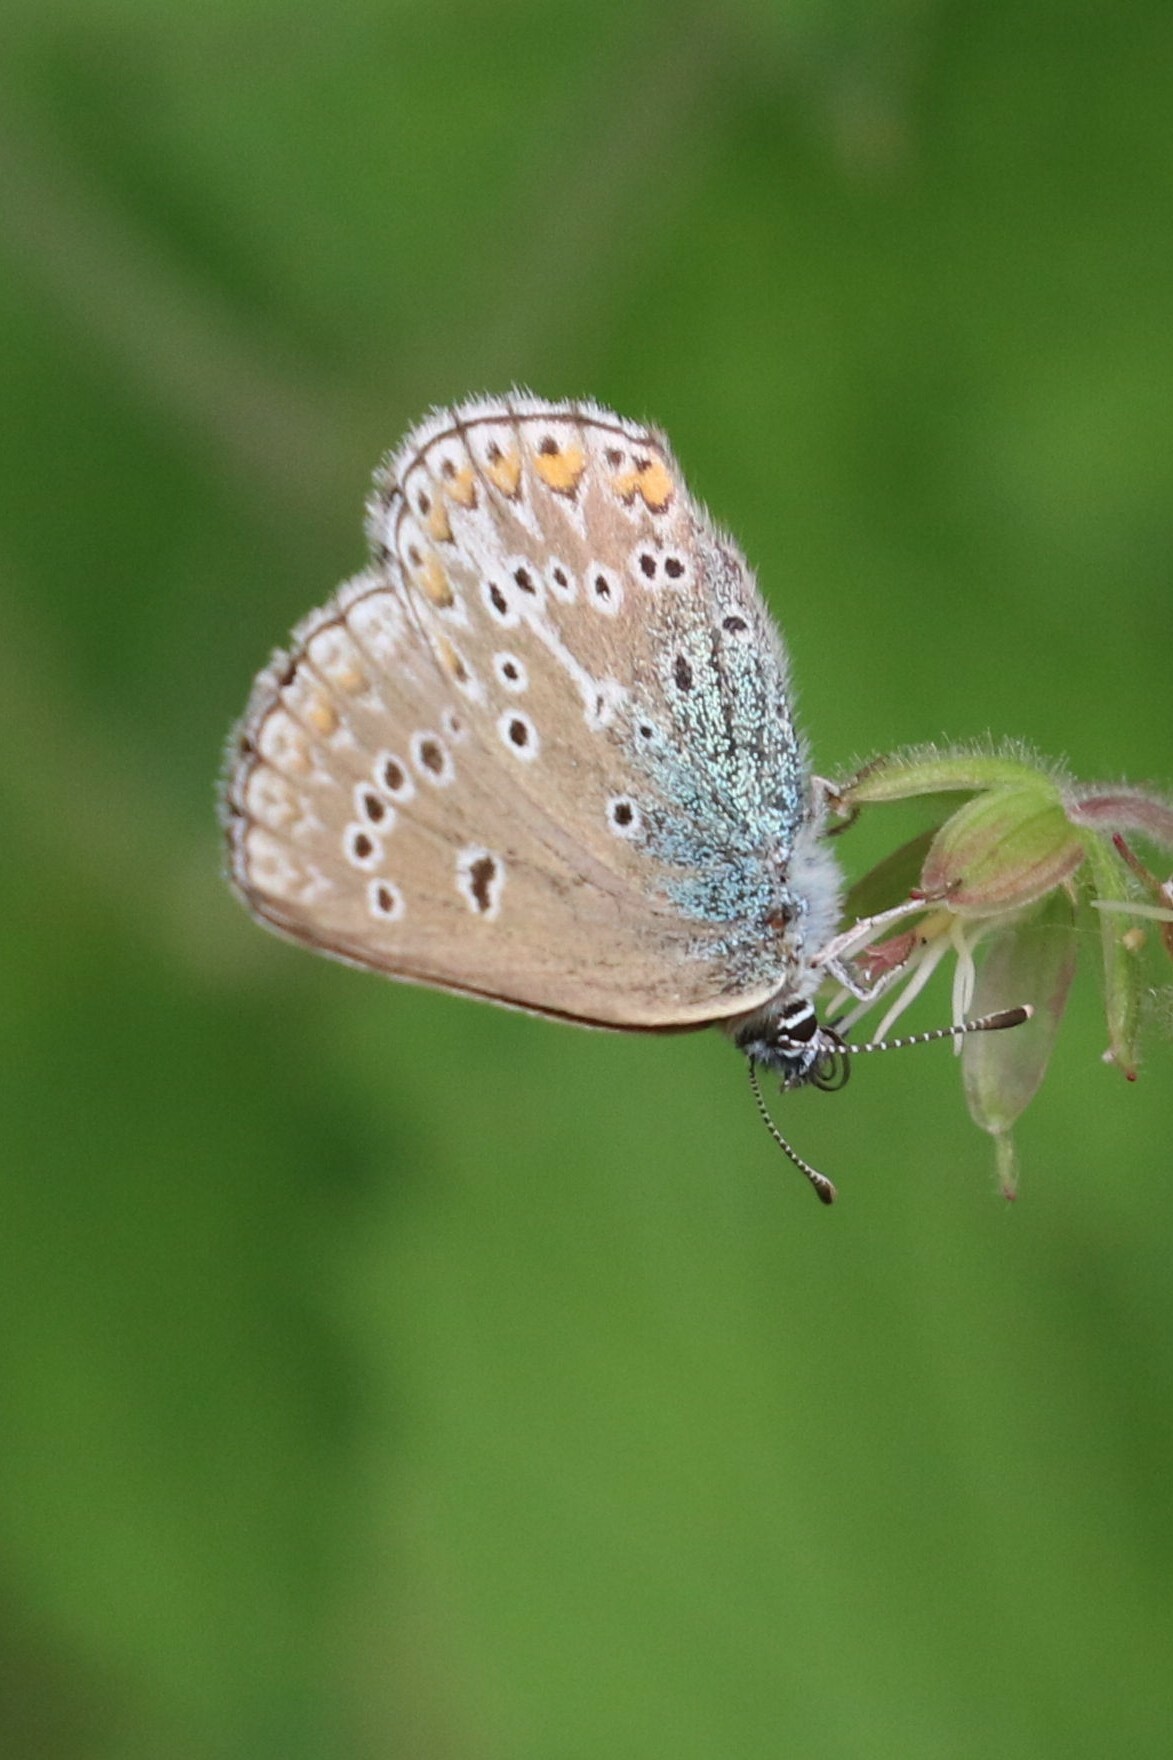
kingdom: Animalia
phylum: Arthropoda
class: Insecta
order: Lepidoptera
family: Lycaenidae
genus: Eumedonia
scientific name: Eumedonia eumedon
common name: Geranium argus
